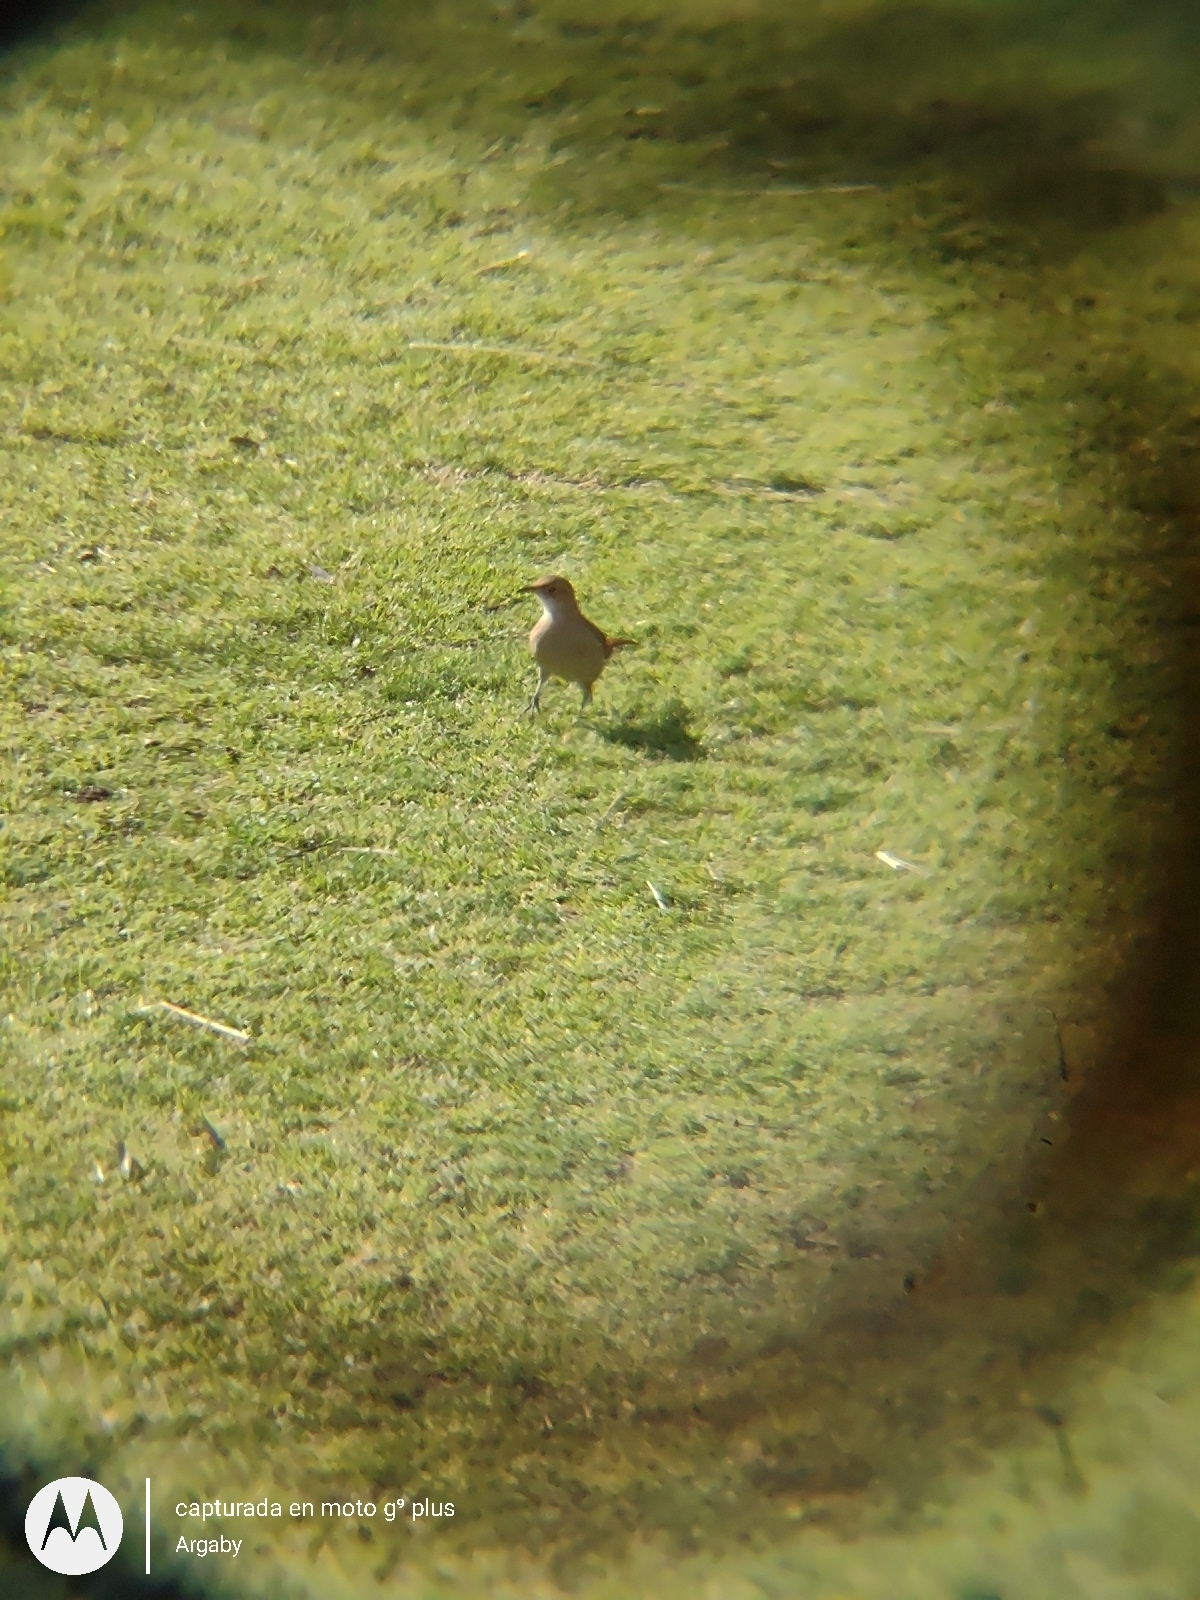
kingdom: Animalia
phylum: Chordata
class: Aves
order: Passeriformes
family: Furnariidae
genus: Furnarius
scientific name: Furnarius rufus
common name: Rufous hornero
